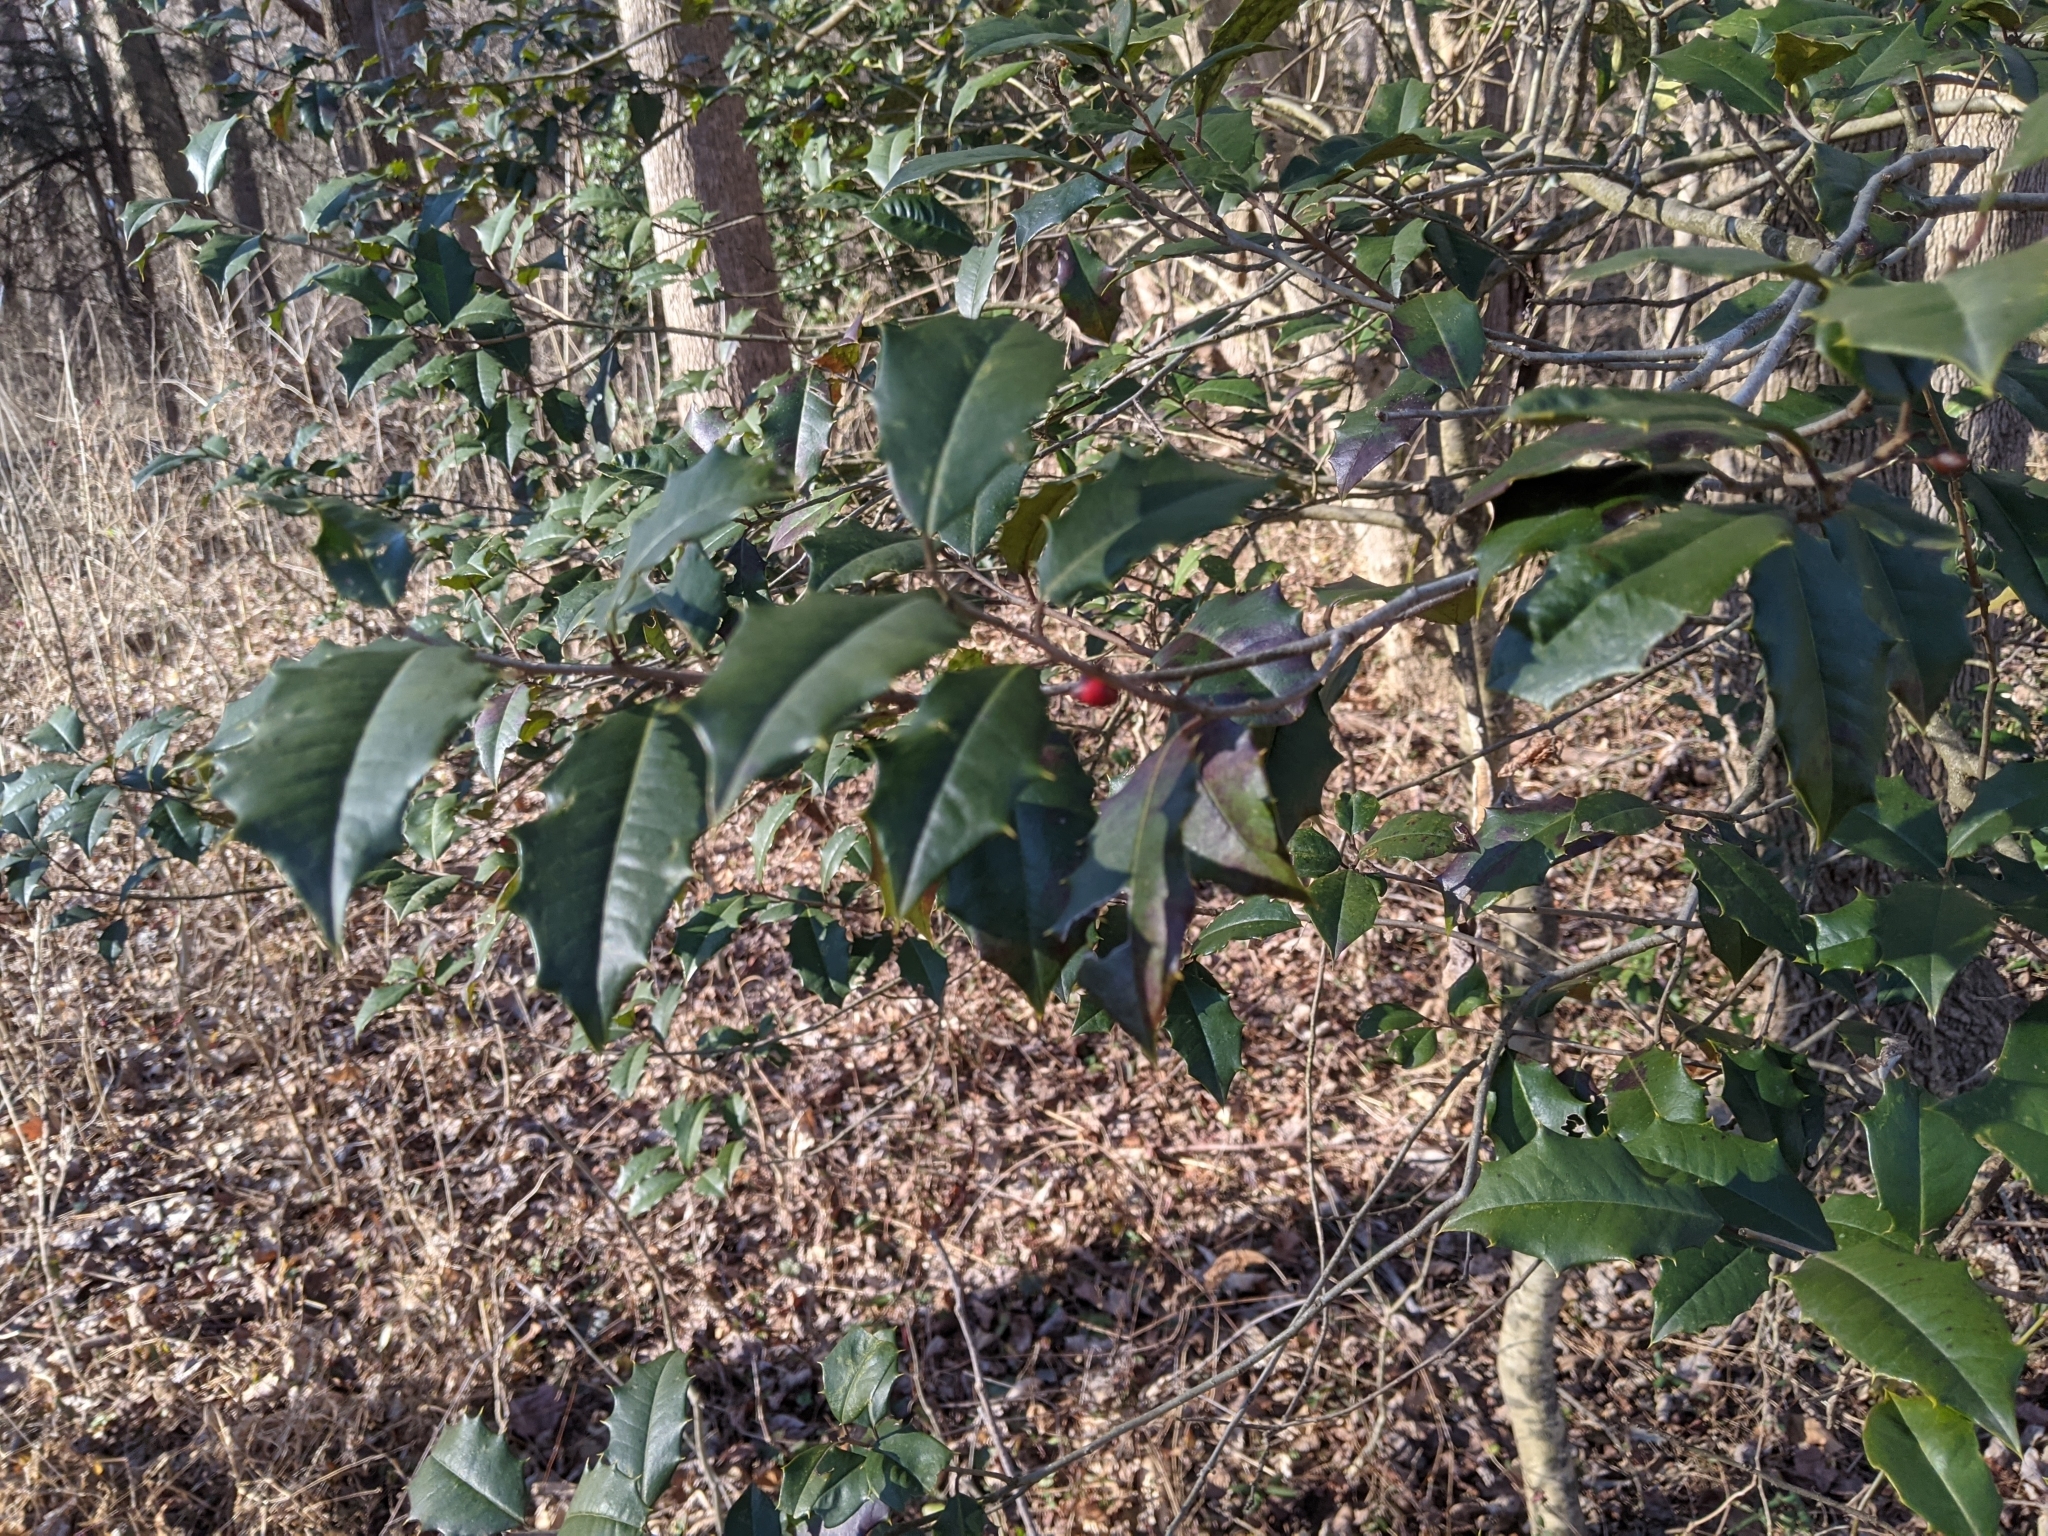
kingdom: Plantae
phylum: Tracheophyta
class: Magnoliopsida
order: Aquifoliales
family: Aquifoliaceae
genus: Ilex
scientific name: Ilex opaca
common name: American holly
